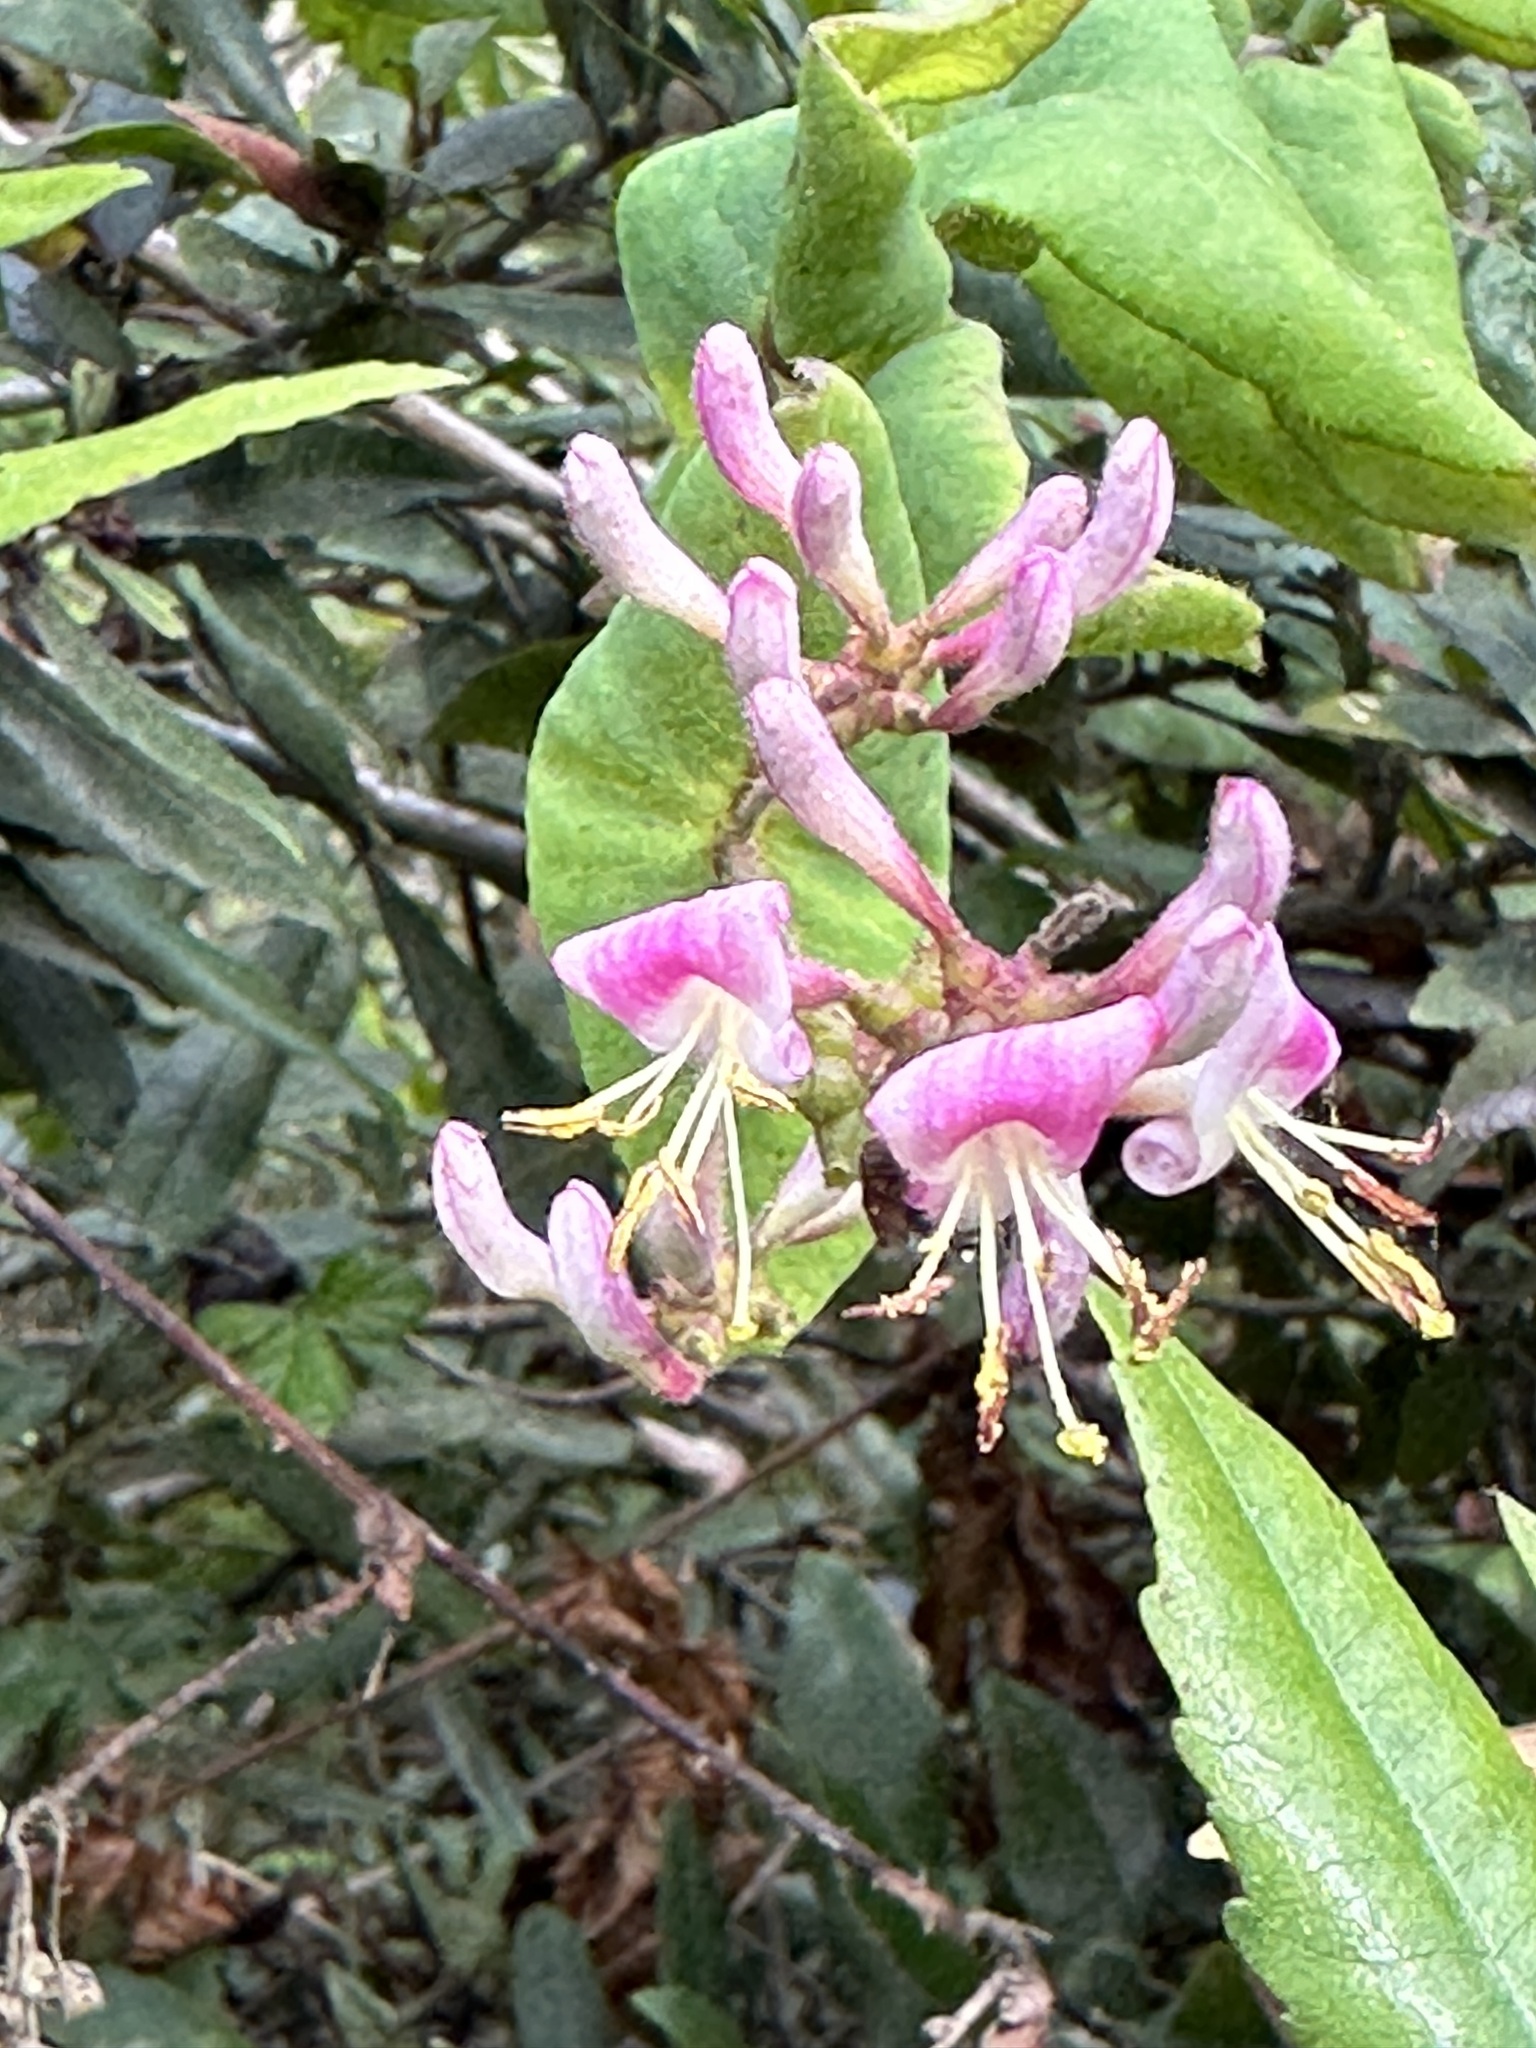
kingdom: Plantae
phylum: Tracheophyta
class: Magnoliopsida
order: Dipsacales
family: Caprifoliaceae
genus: Lonicera
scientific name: Lonicera hispidula
